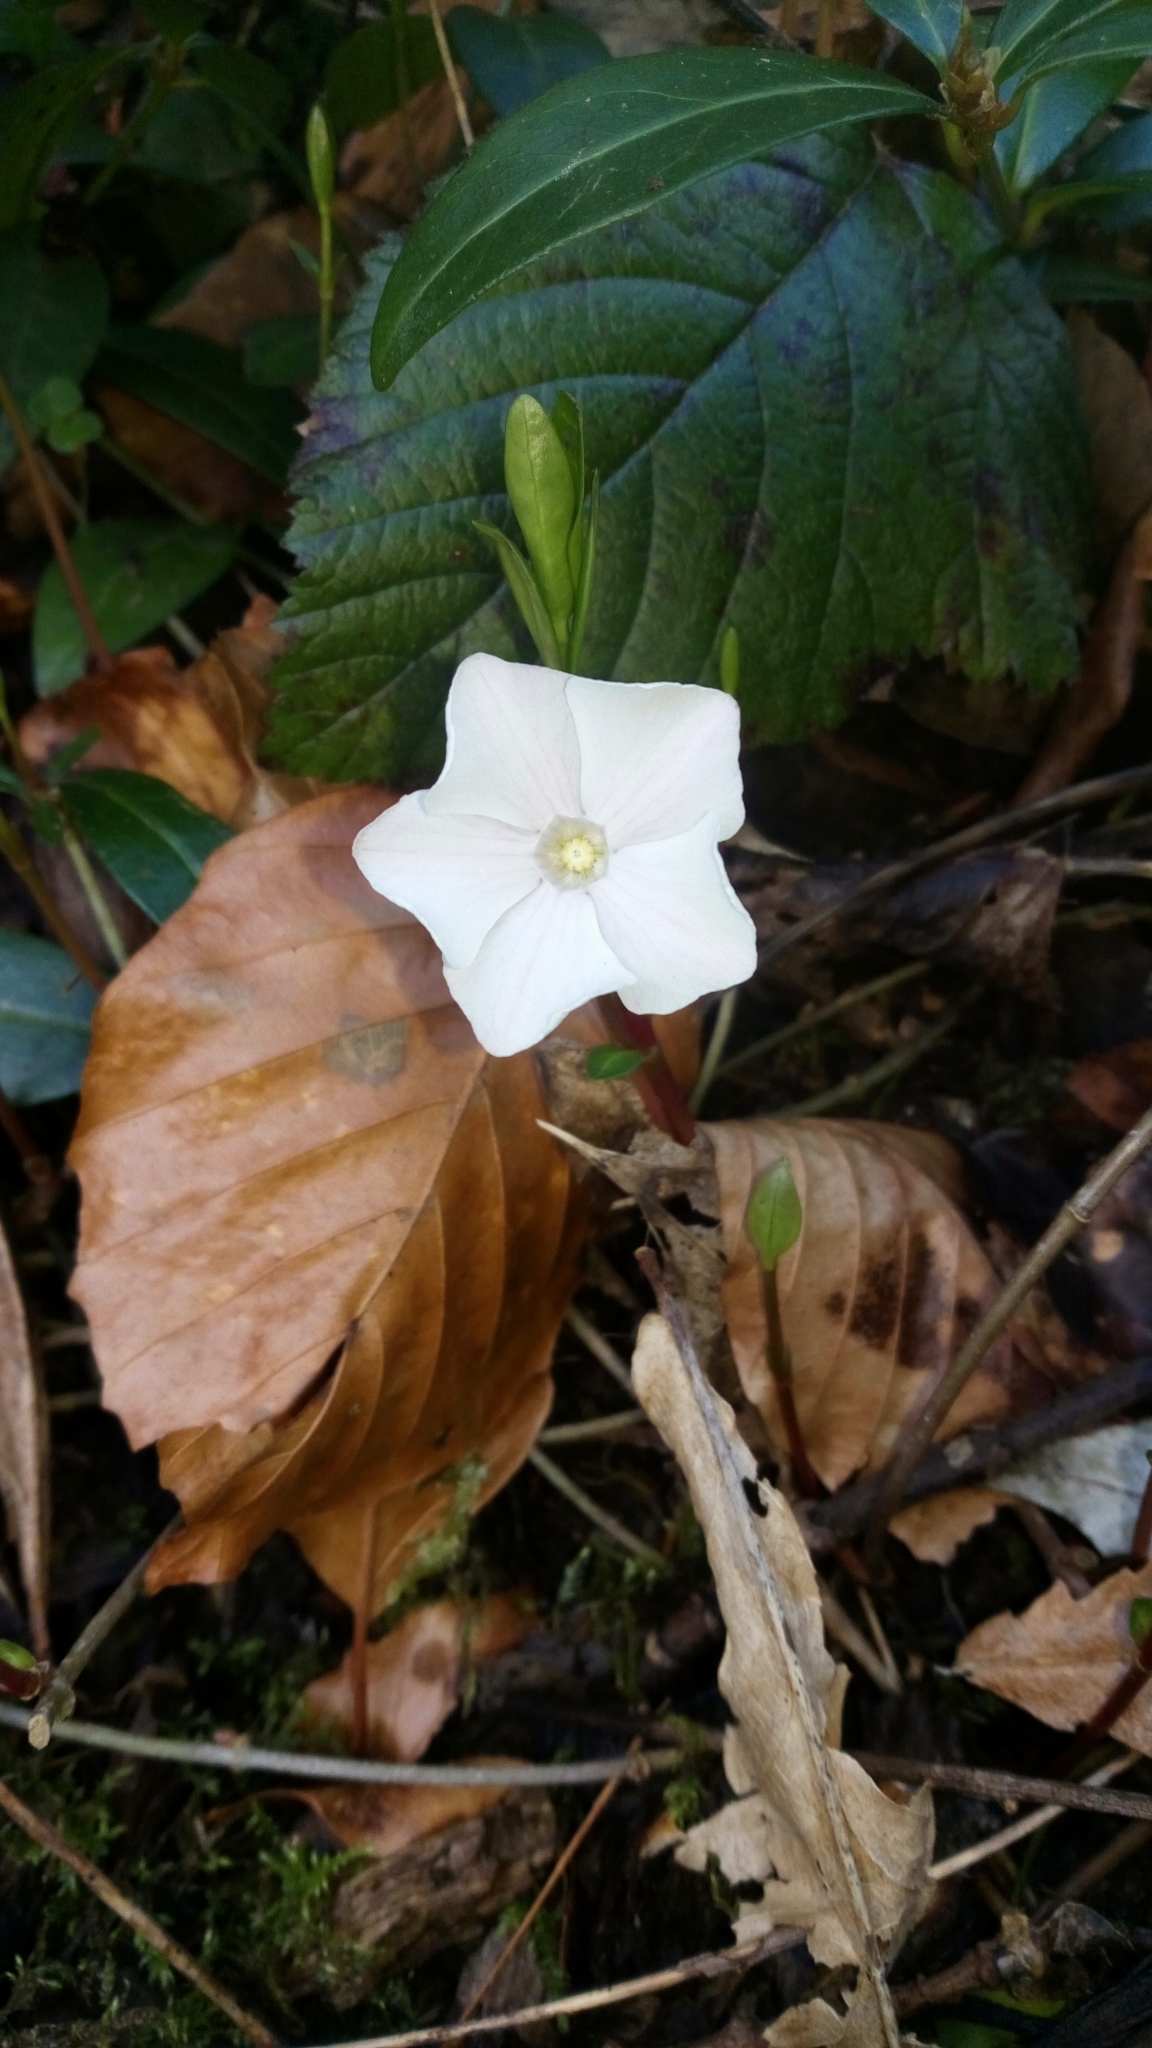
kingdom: Plantae
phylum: Tracheophyta
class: Magnoliopsida
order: Gentianales
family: Apocynaceae
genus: Vinca
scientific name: Vinca minor
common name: Lesser periwinkle
